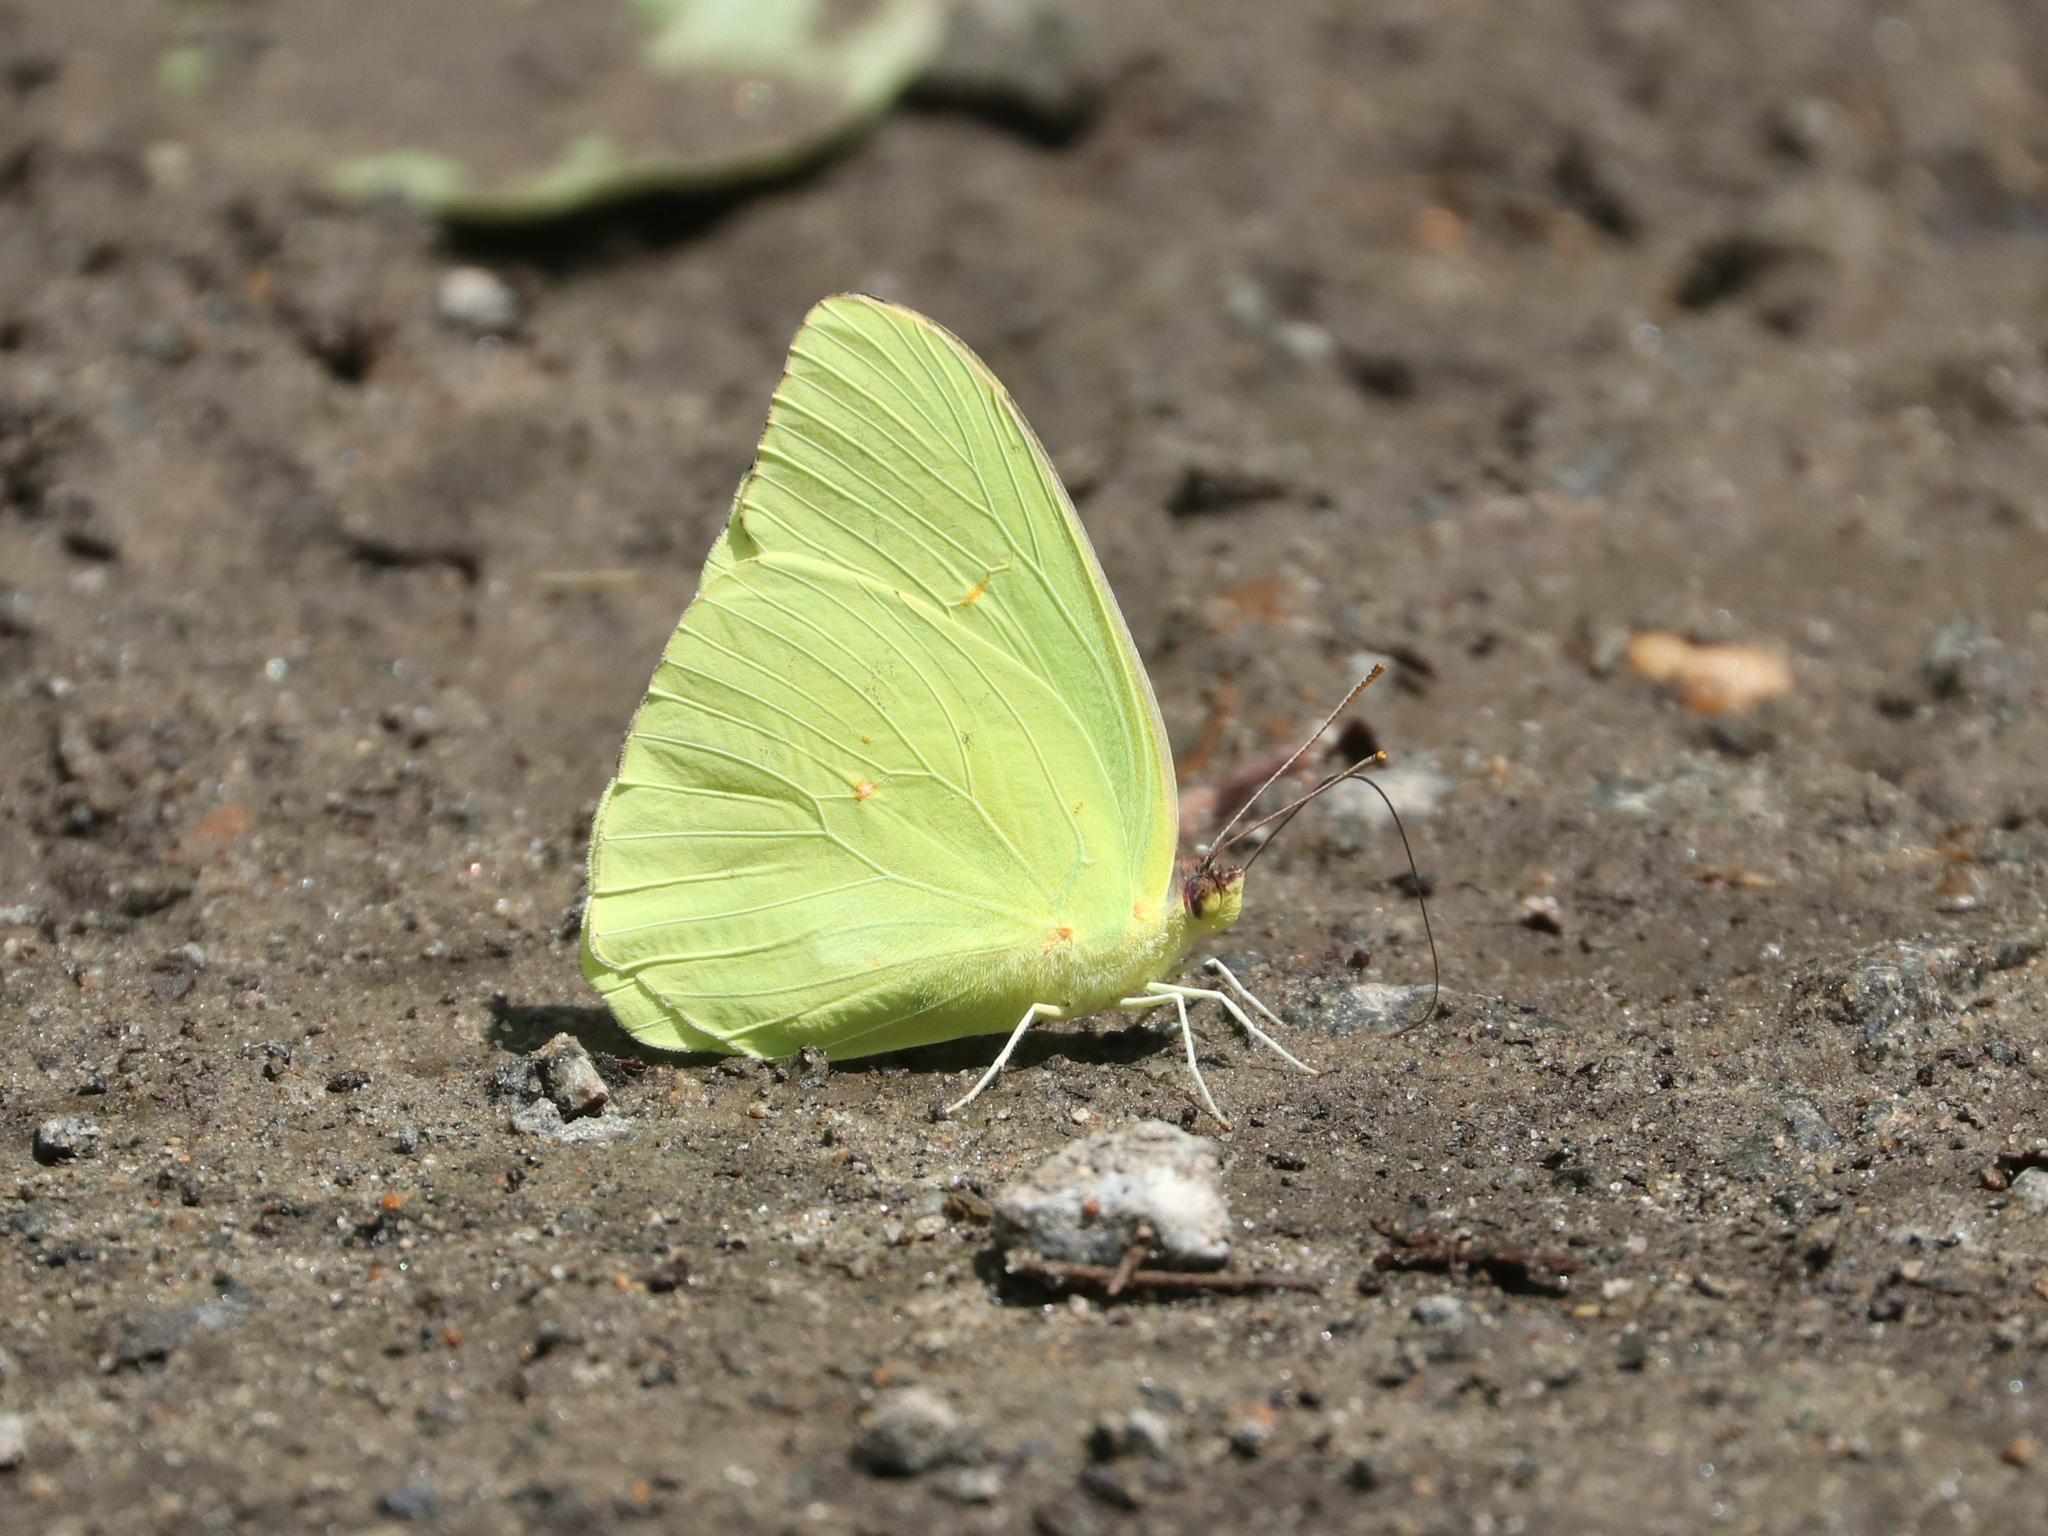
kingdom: Animalia
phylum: Arthropoda
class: Insecta
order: Lepidoptera
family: Pieridae
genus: Phoebis
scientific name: Phoebis sennae
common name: Cloudless sulphur
